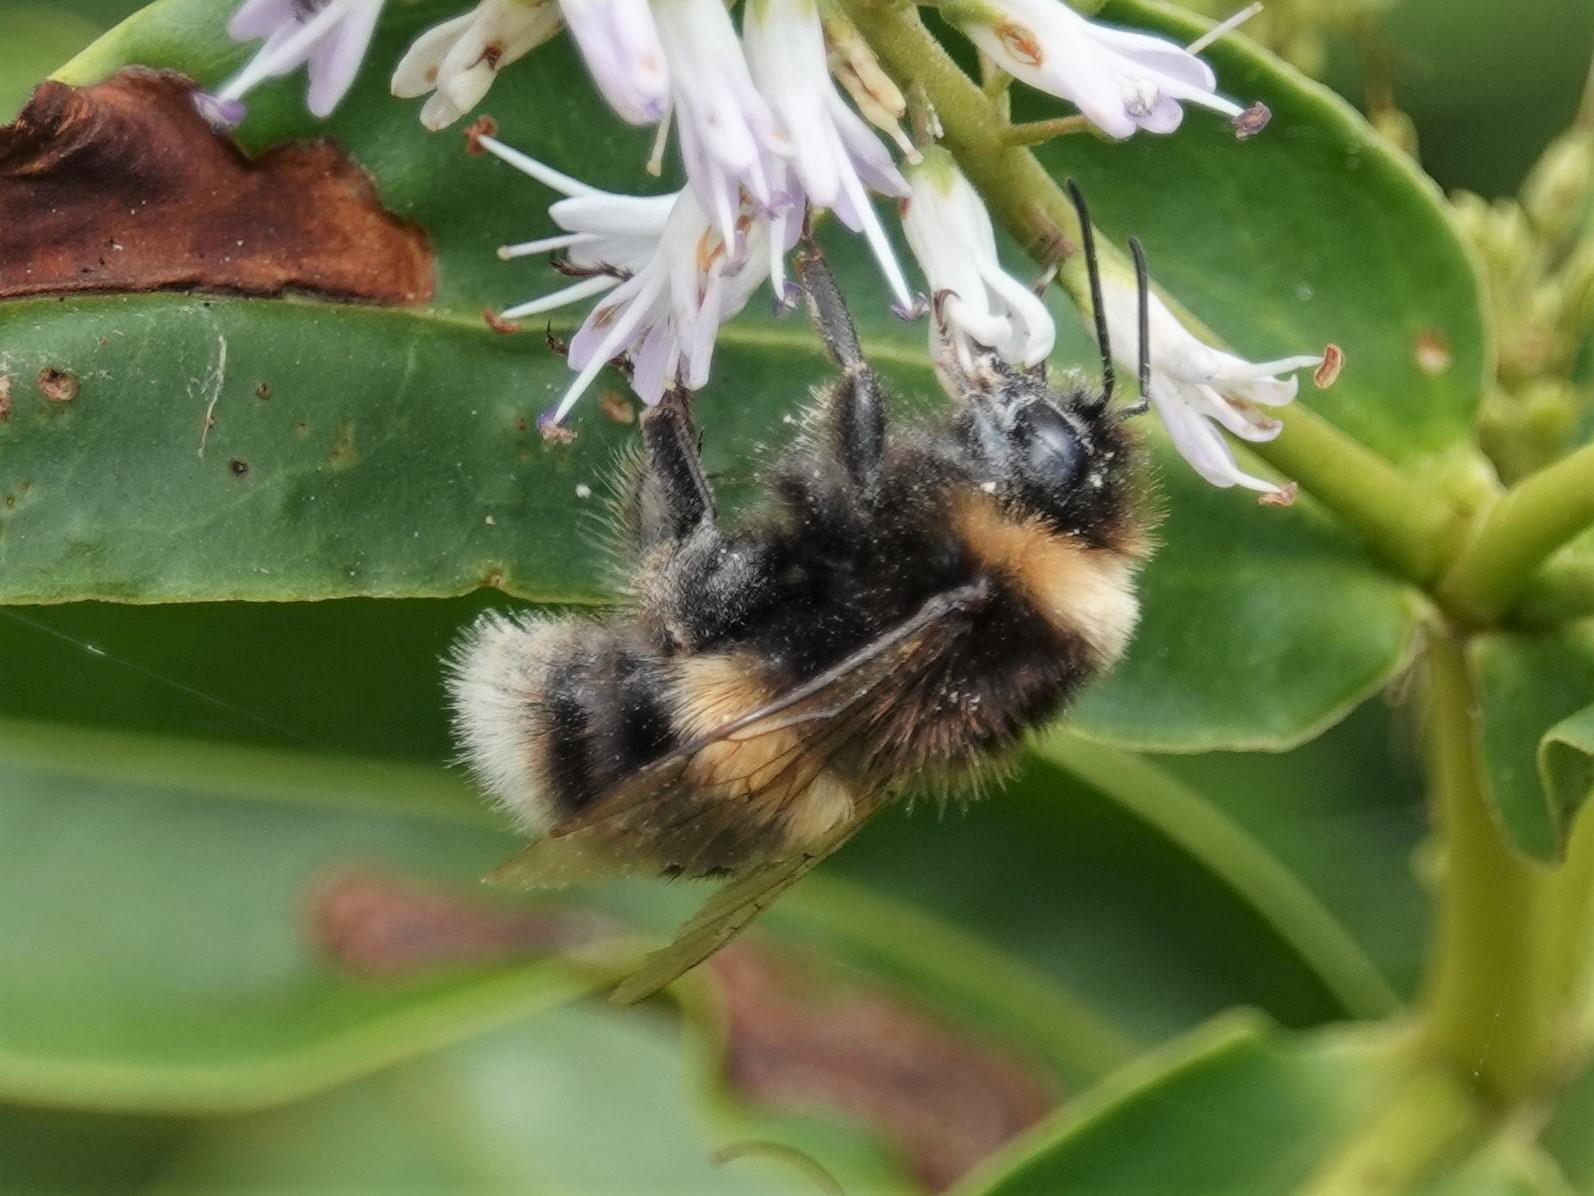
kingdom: Animalia
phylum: Arthropoda
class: Insecta
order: Hymenoptera
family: Apidae
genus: Bombus
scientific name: Bombus terrestris
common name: Buff-tailed bumblebee
